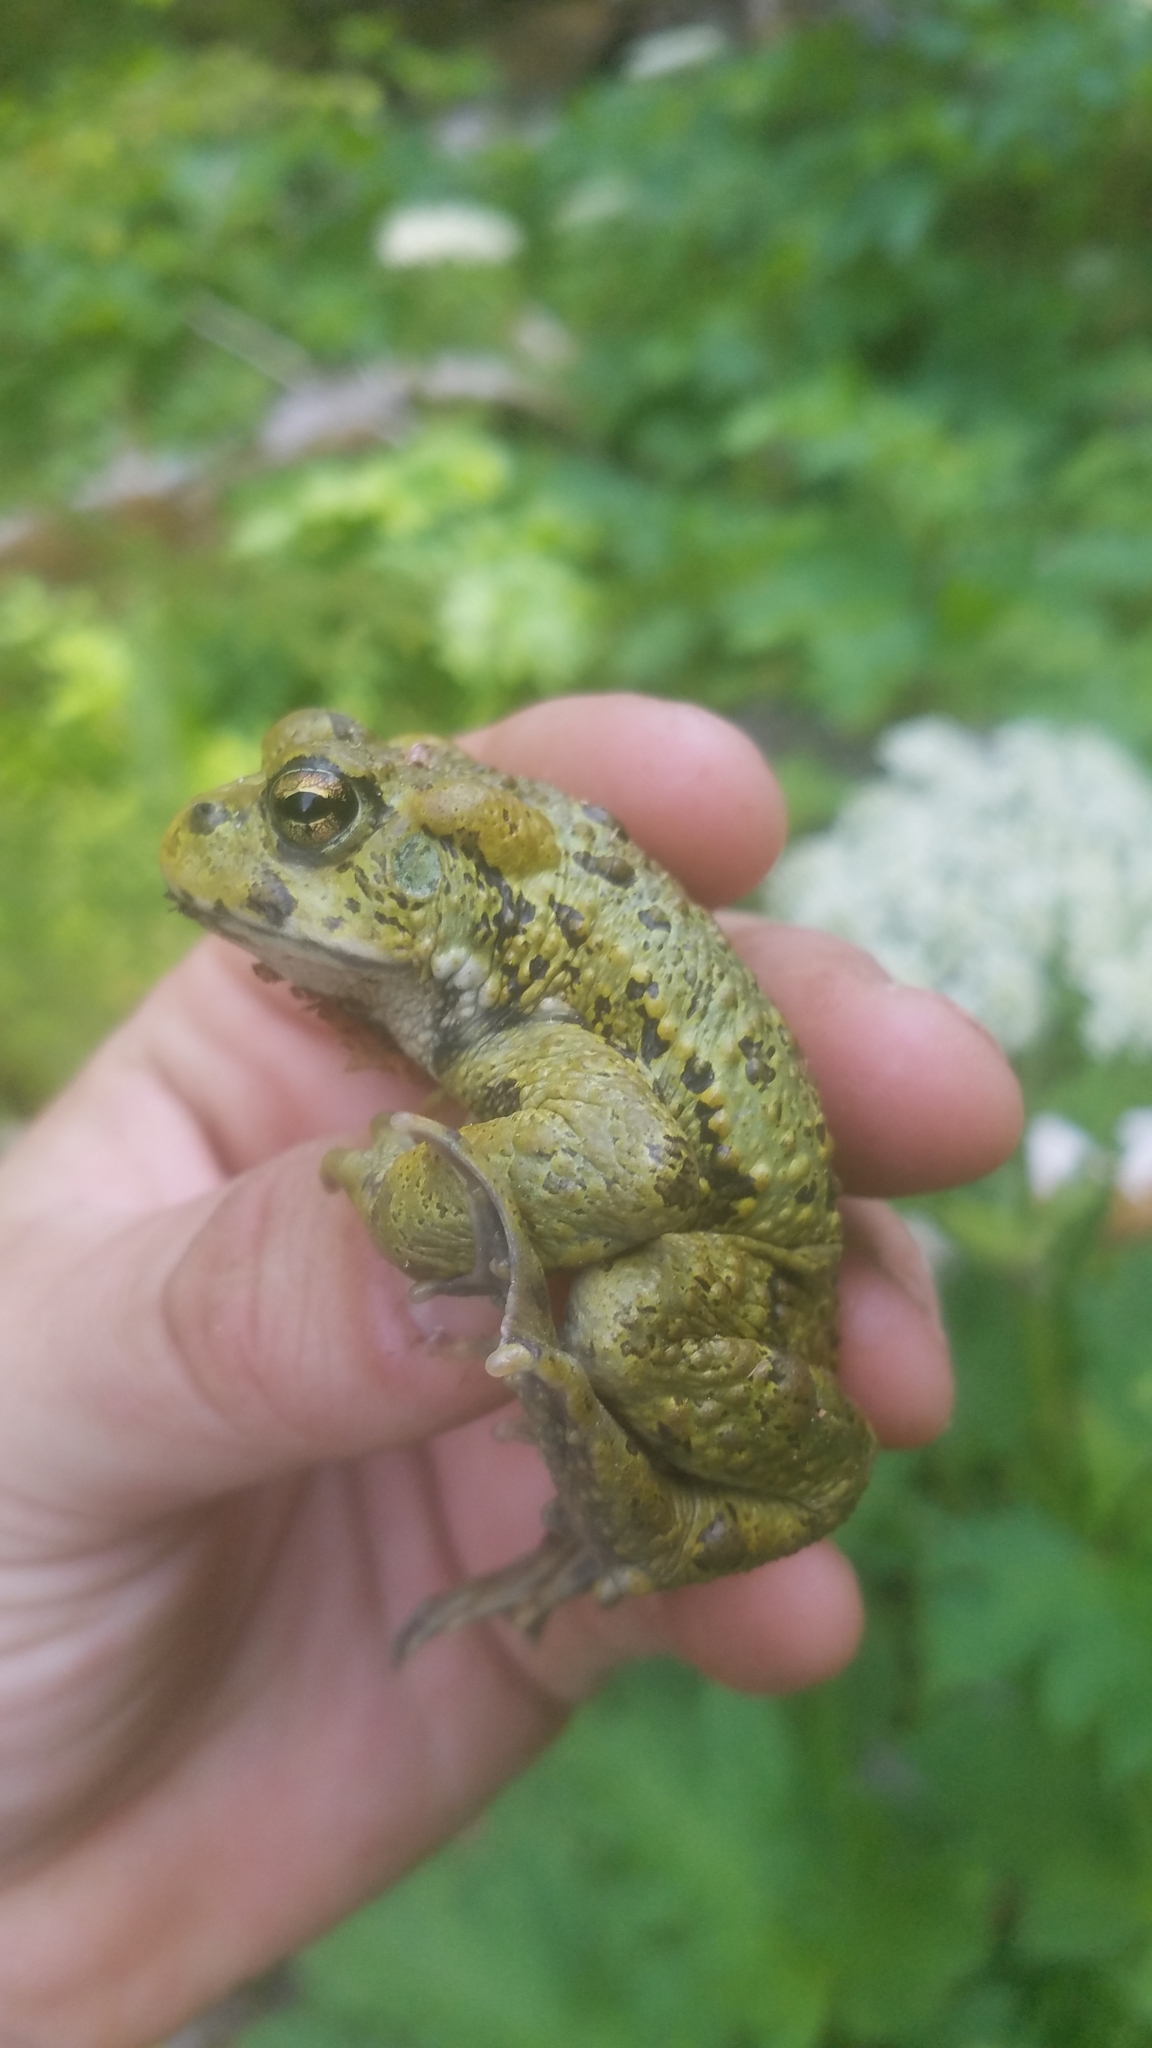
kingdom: Animalia
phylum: Chordata
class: Amphibia
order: Anura
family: Bufonidae
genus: Anaxyrus
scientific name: Anaxyrus boreas
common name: Western toad
